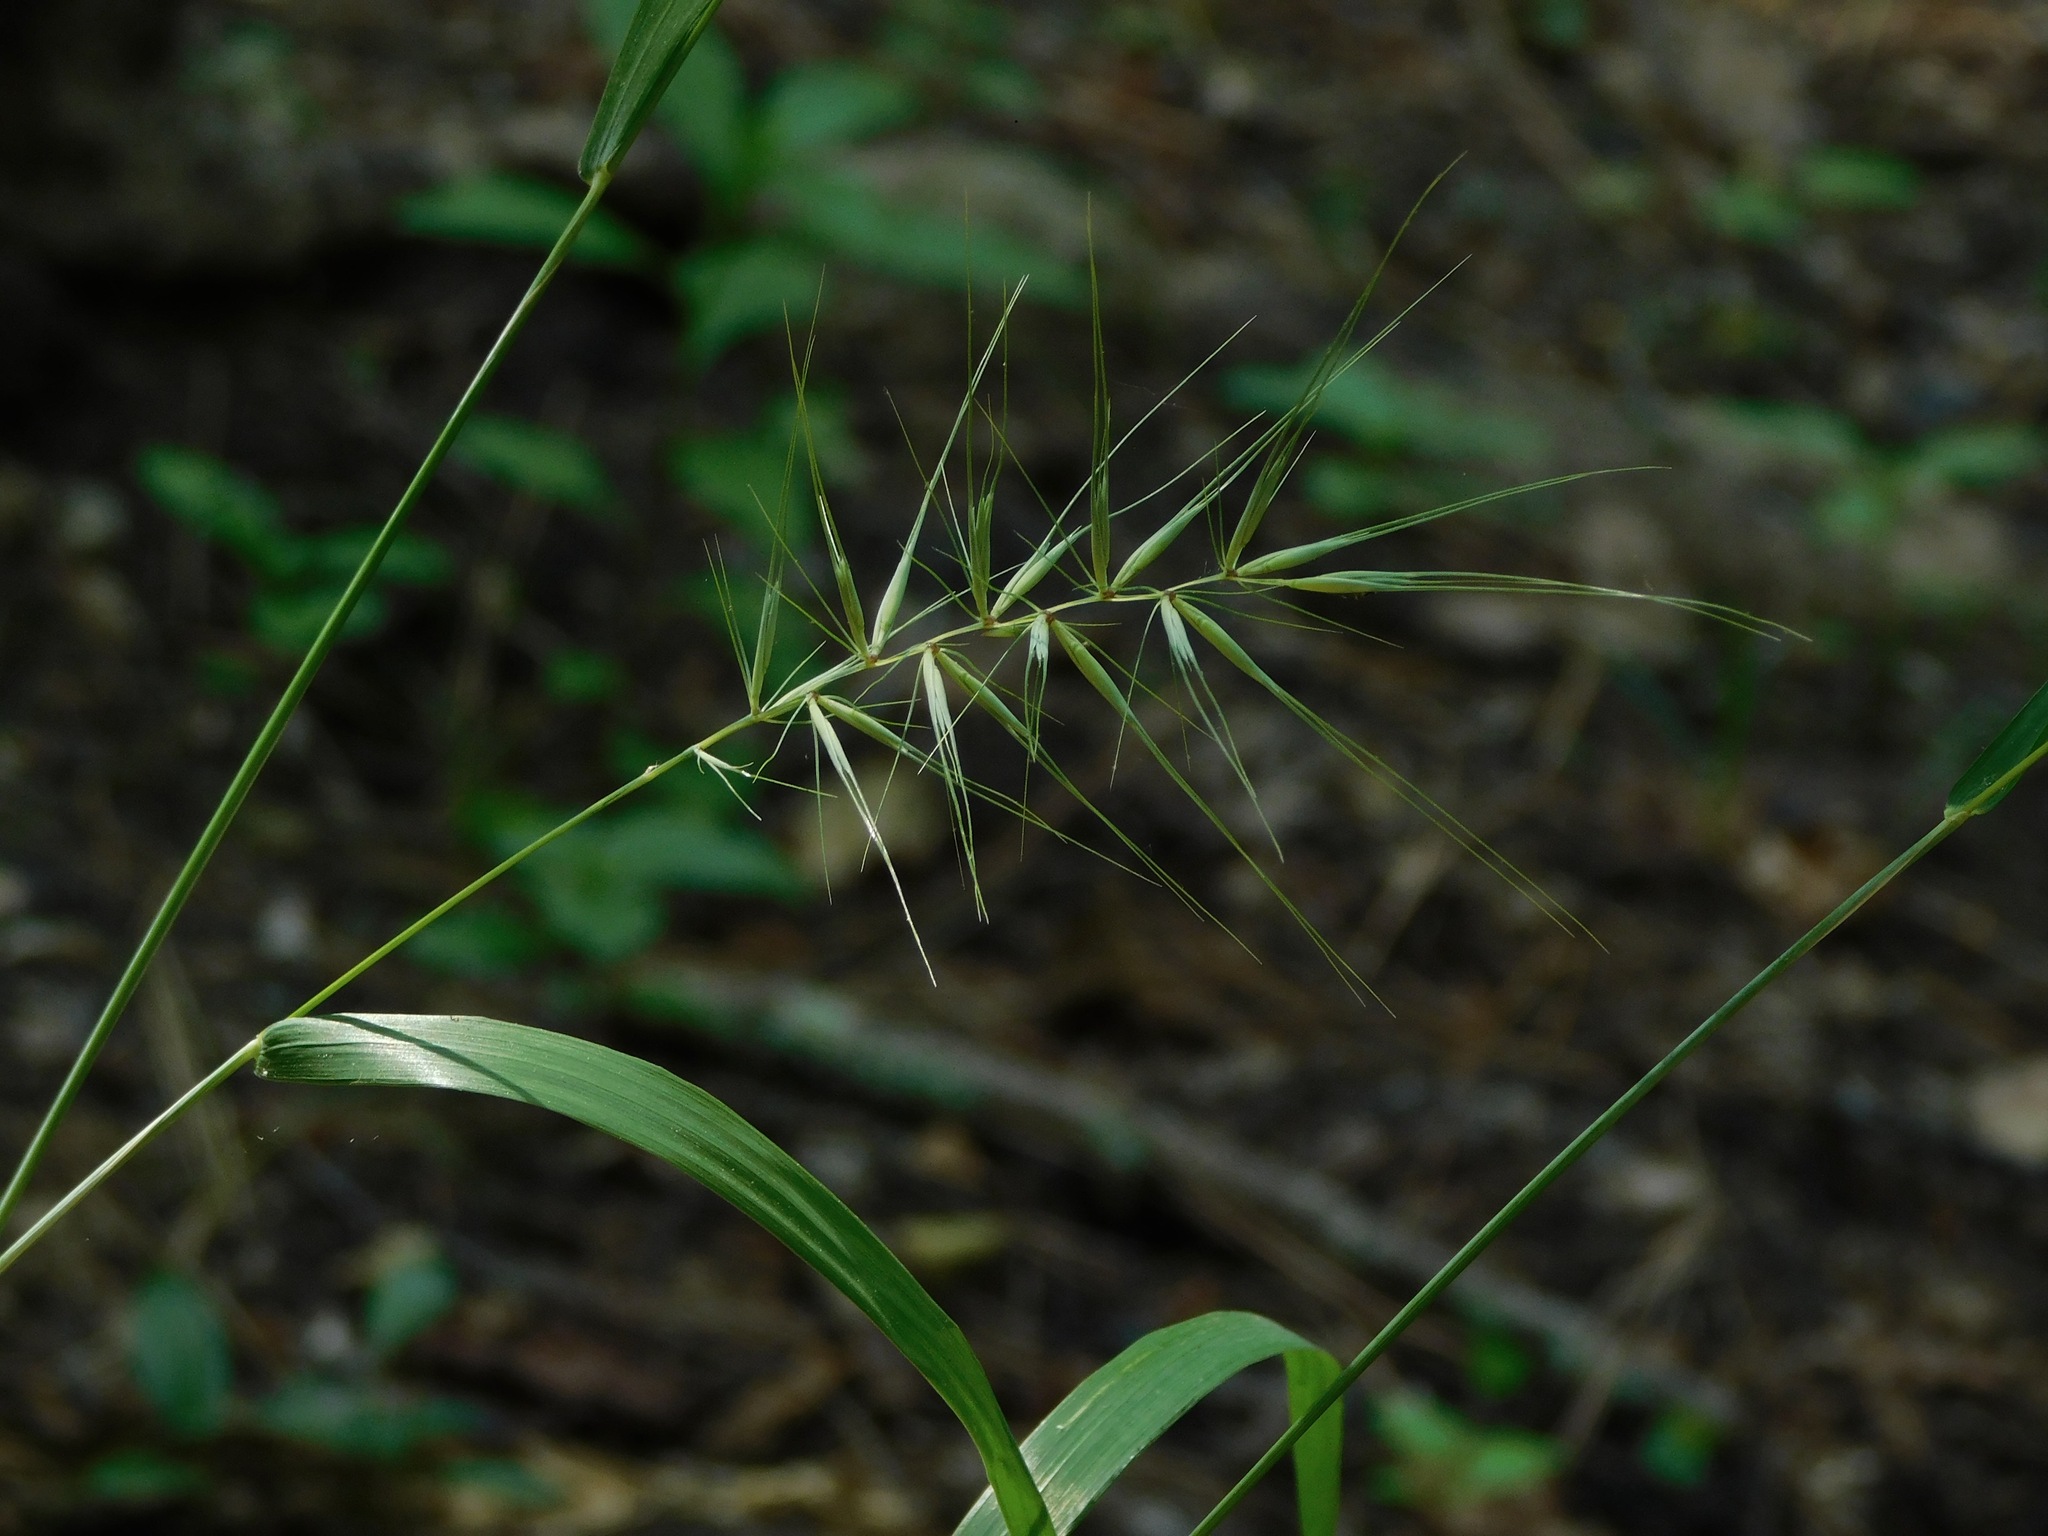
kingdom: Plantae
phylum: Tracheophyta
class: Liliopsida
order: Poales
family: Poaceae
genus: Elymus
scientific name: Elymus hystrix
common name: Bottlebrush grass
